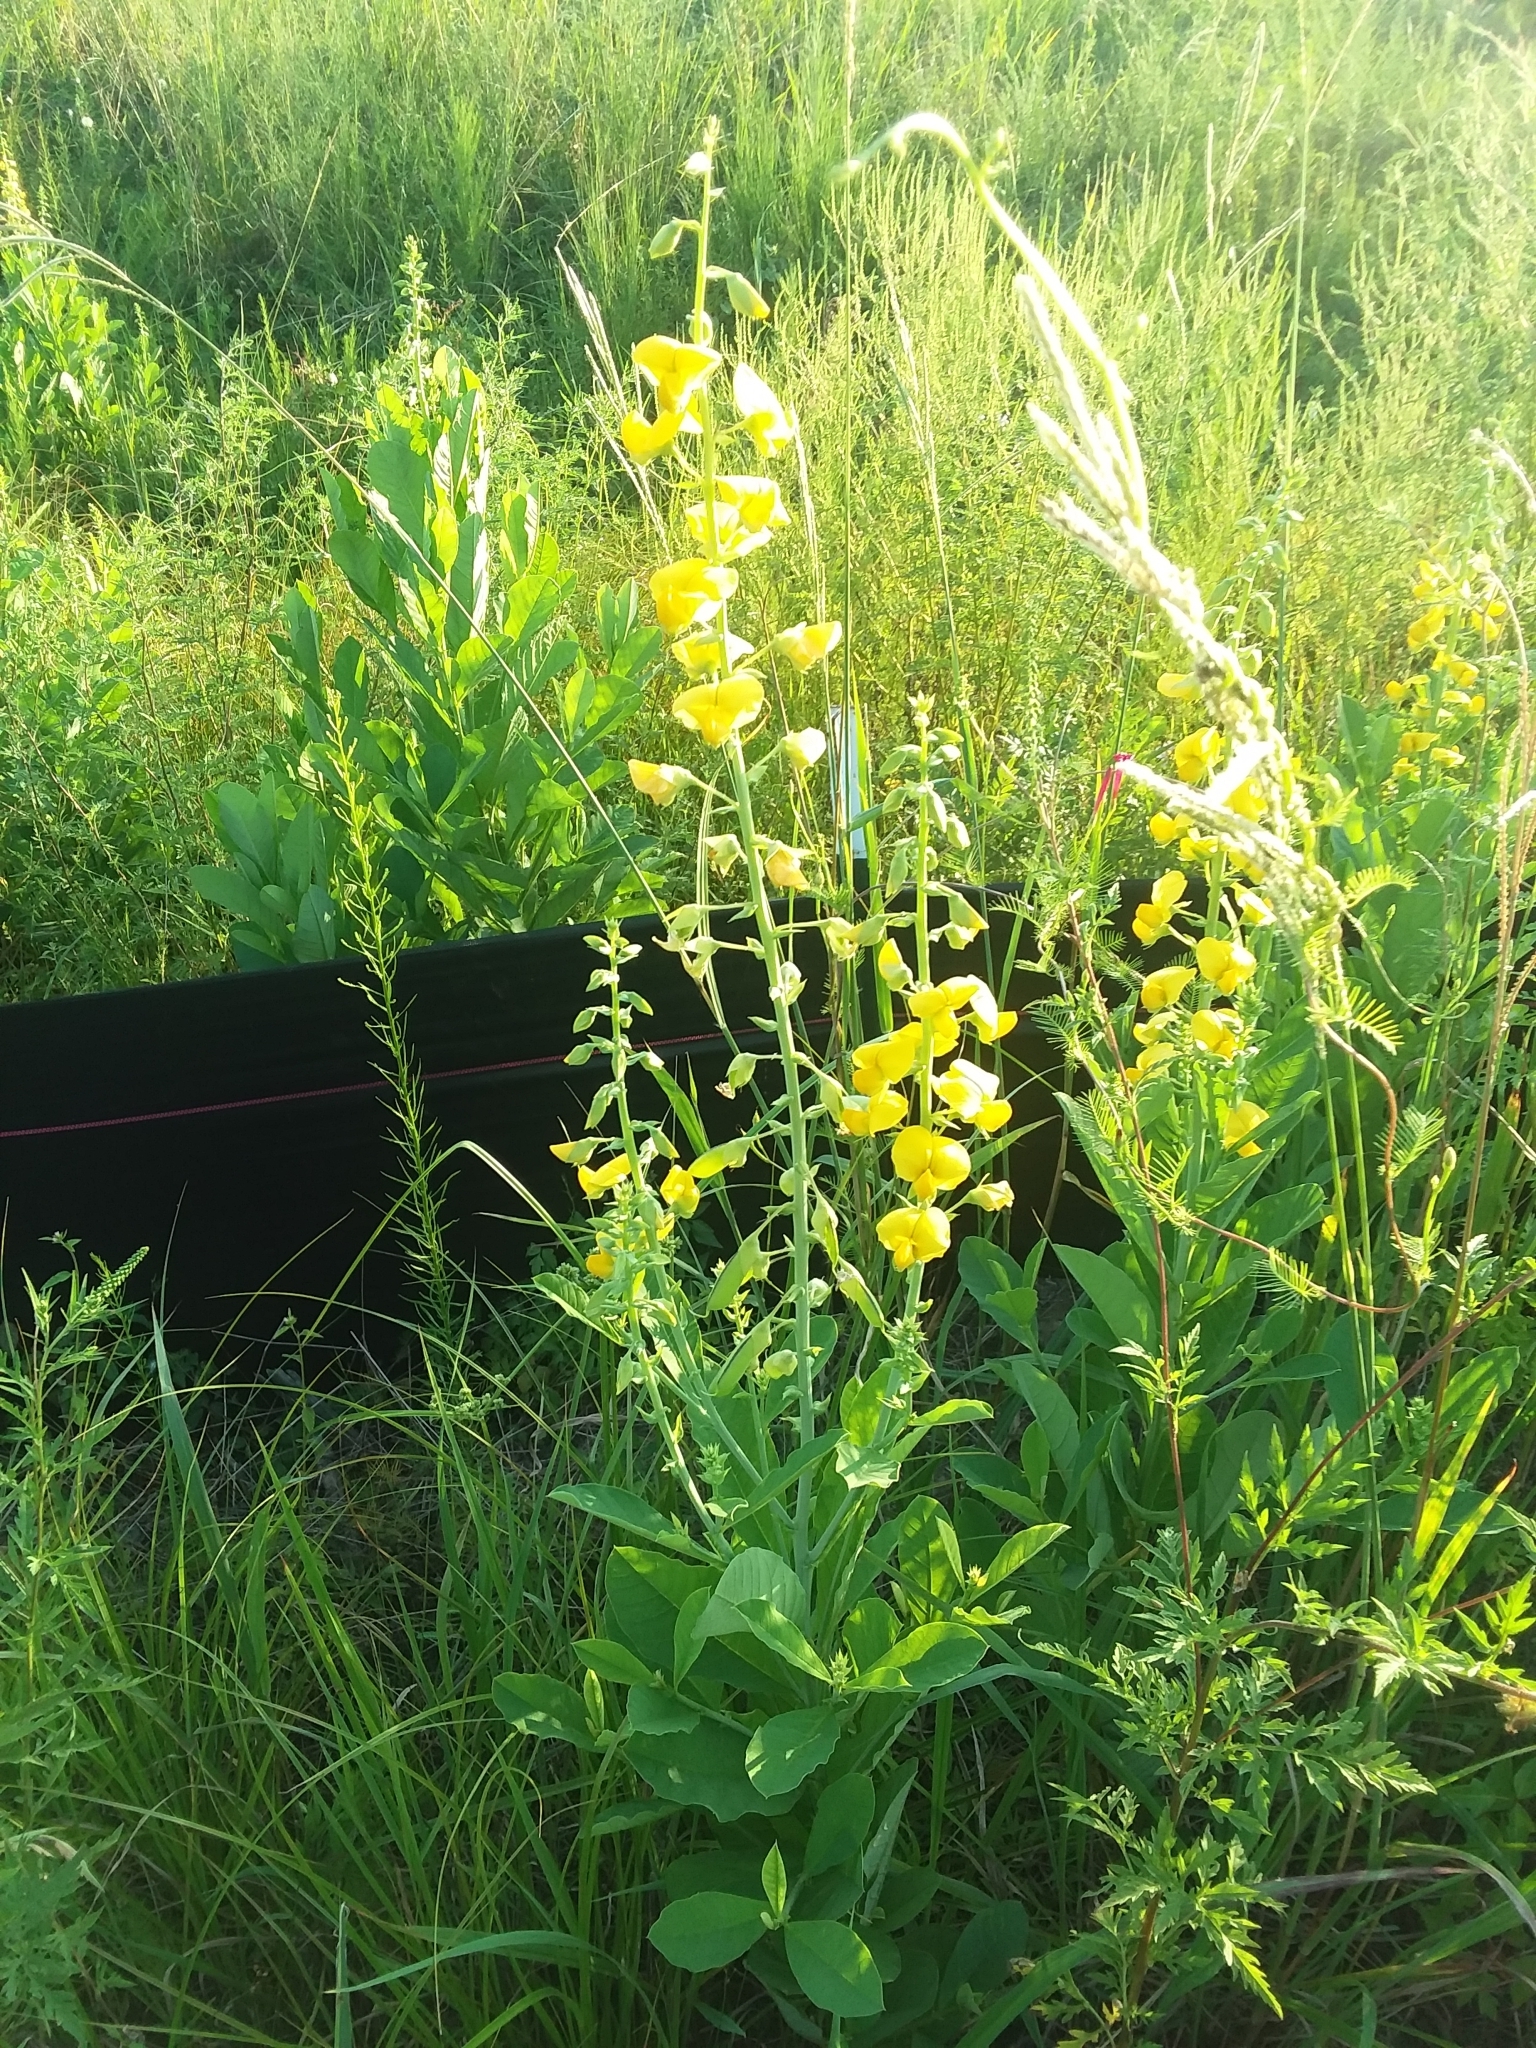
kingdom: Plantae
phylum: Tracheophyta
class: Magnoliopsida
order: Fabales
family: Fabaceae
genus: Crotalaria
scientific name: Crotalaria spectabilis
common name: Showy rattlebox
